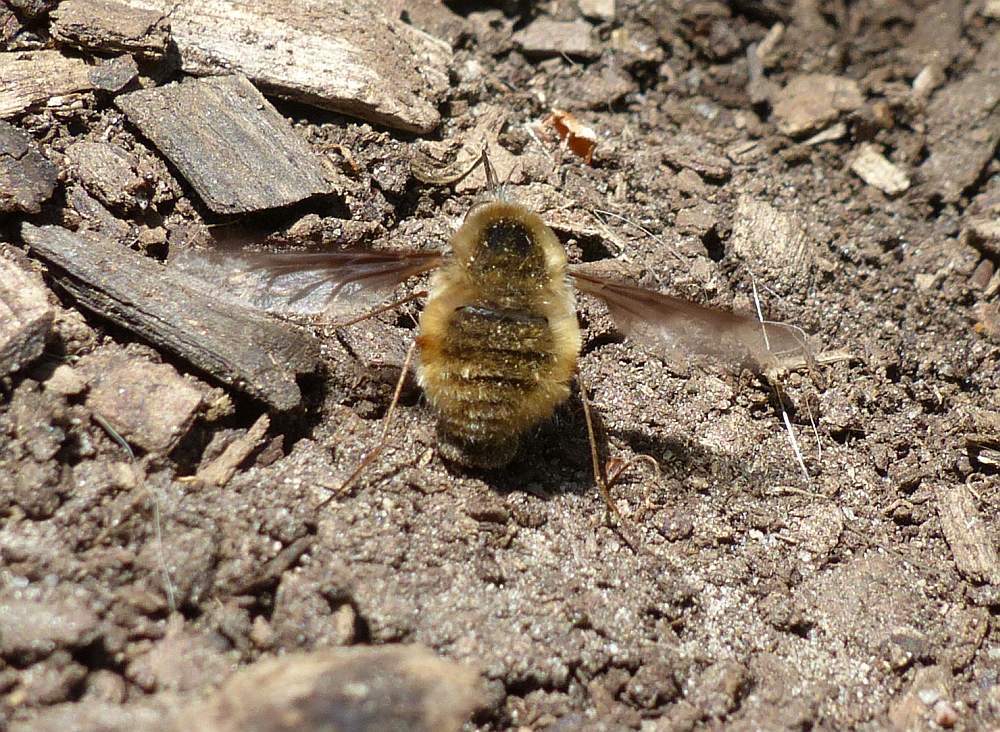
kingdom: Animalia
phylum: Arthropoda
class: Insecta
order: Diptera
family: Bombyliidae
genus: Bombylius
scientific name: Bombylius major
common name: Bee fly
